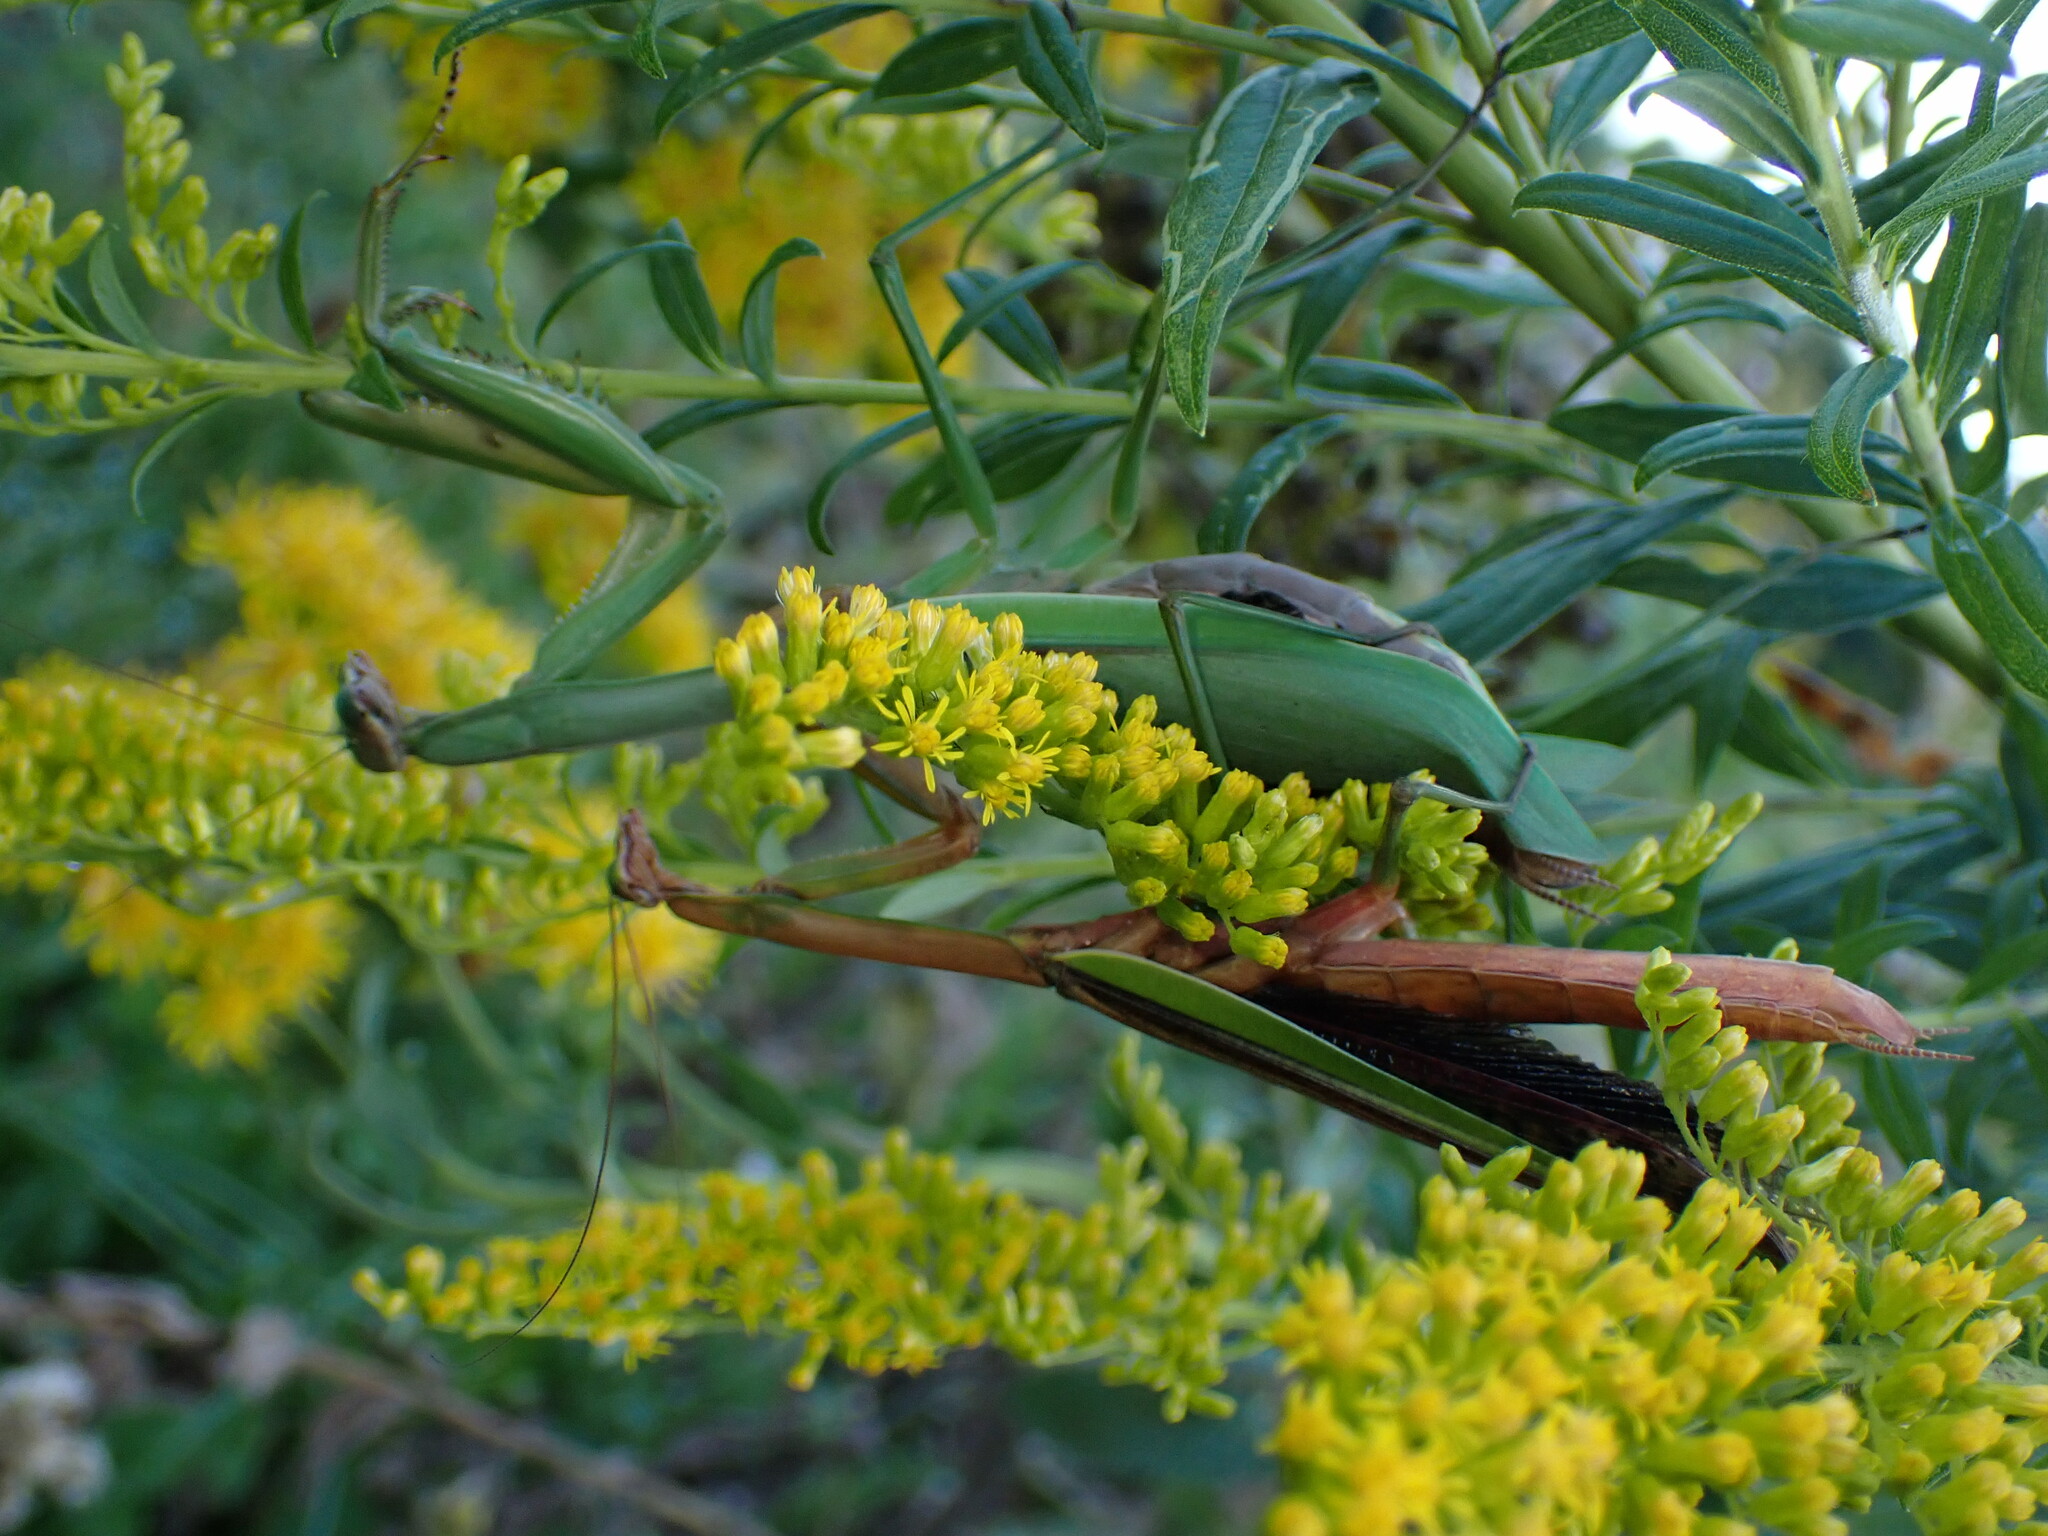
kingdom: Animalia
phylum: Arthropoda
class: Insecta
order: Mantodea
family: Mantidae
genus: Tenodera
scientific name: Tenodera sinensis
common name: Chinese mantis
